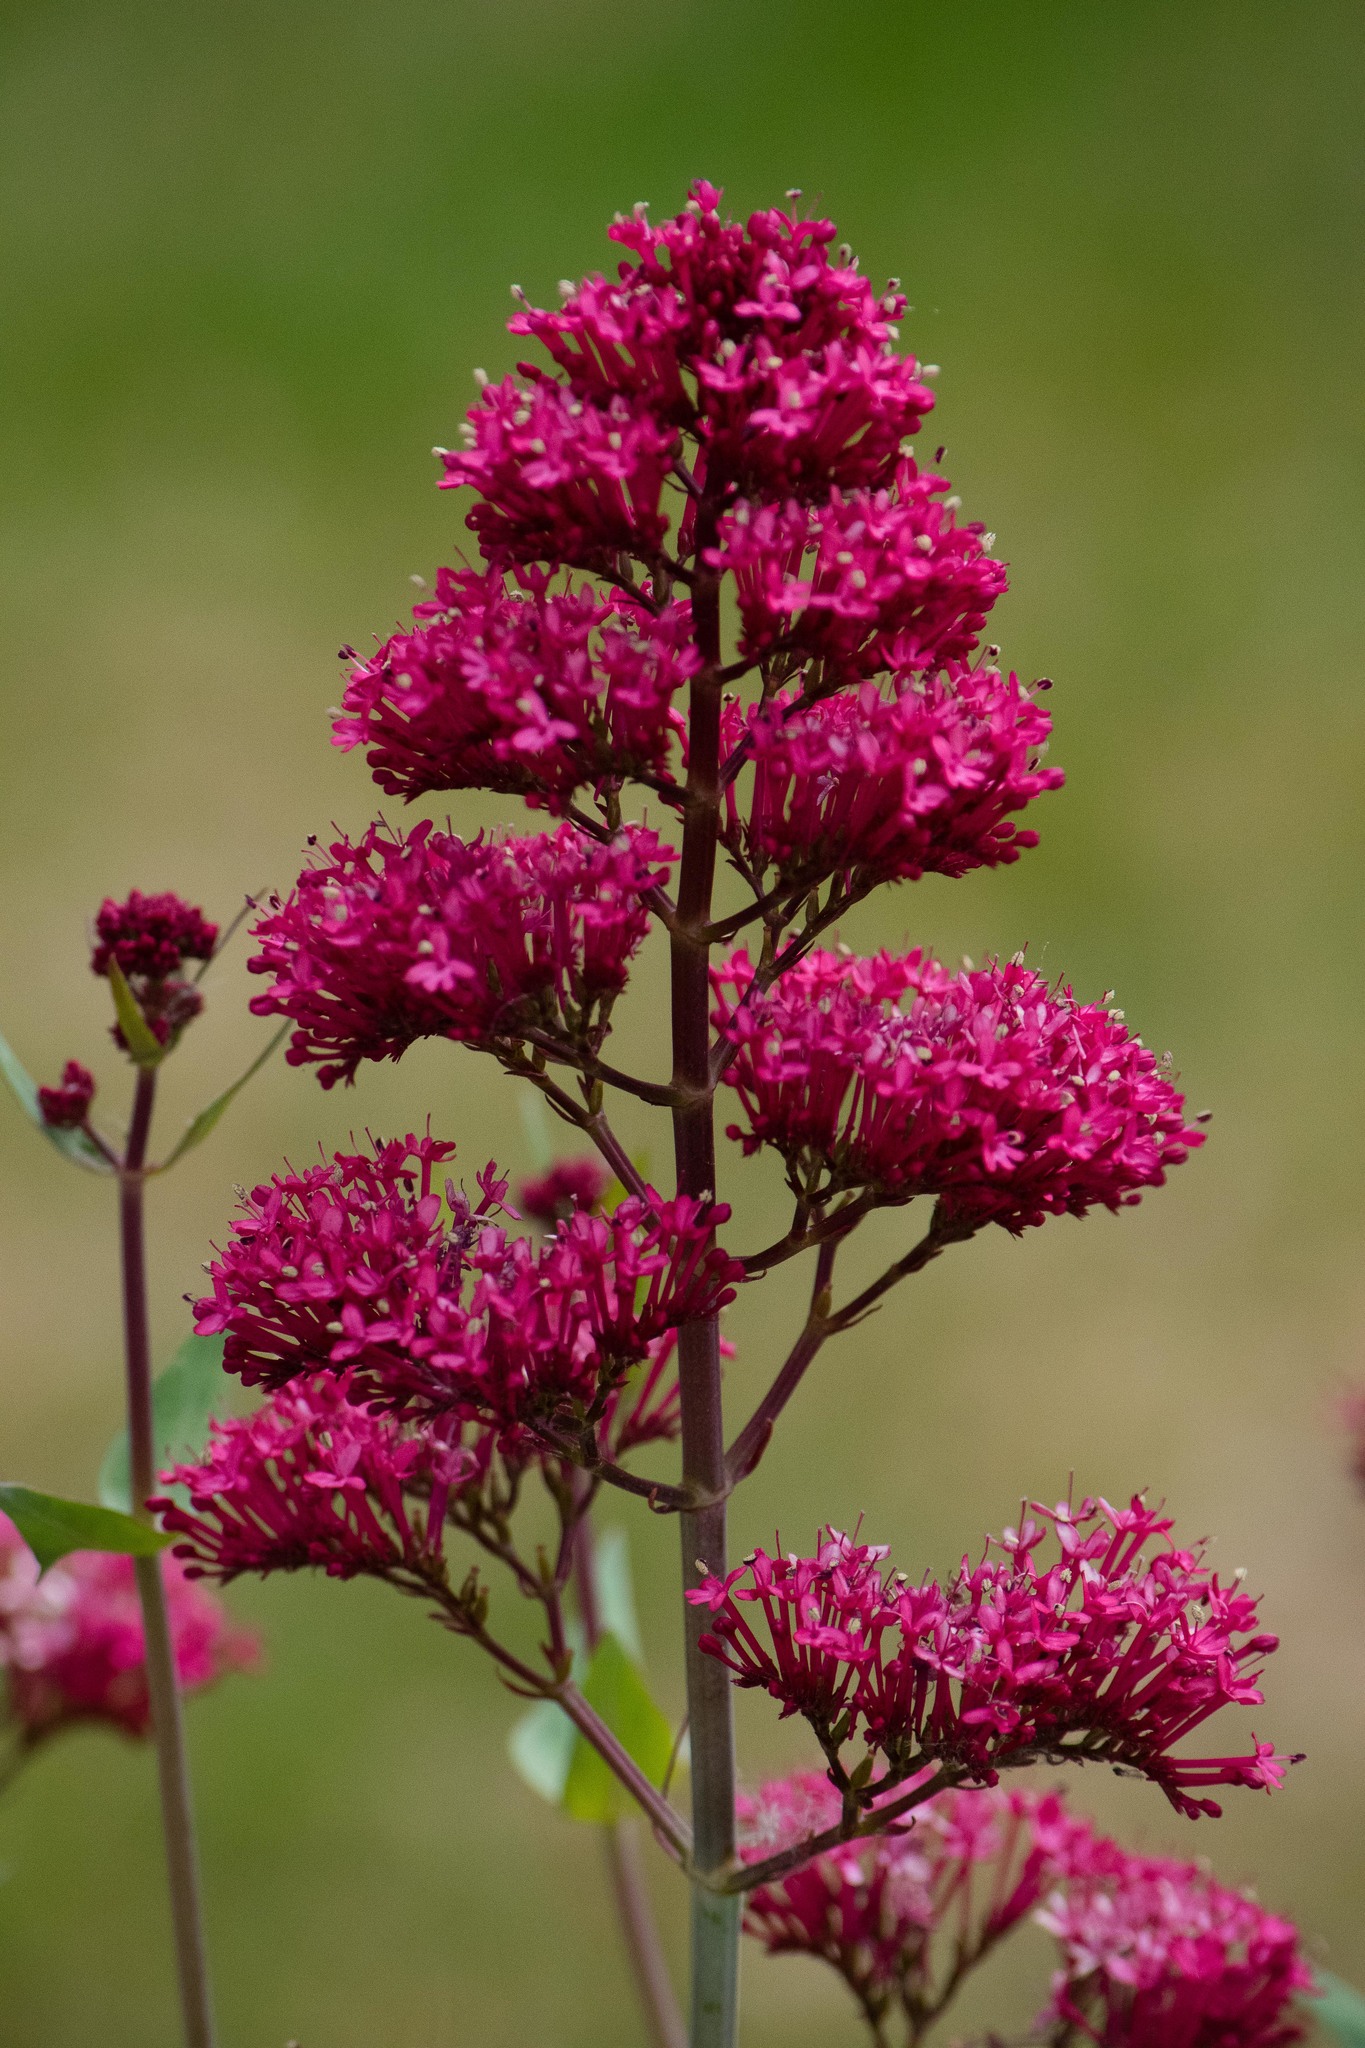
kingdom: Plantae
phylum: Tracheophyta
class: Magnoliopsida
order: Dipsacales
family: Caprifoliaceae
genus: Centranthus
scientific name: Centranthus ruber
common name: Red valerian
